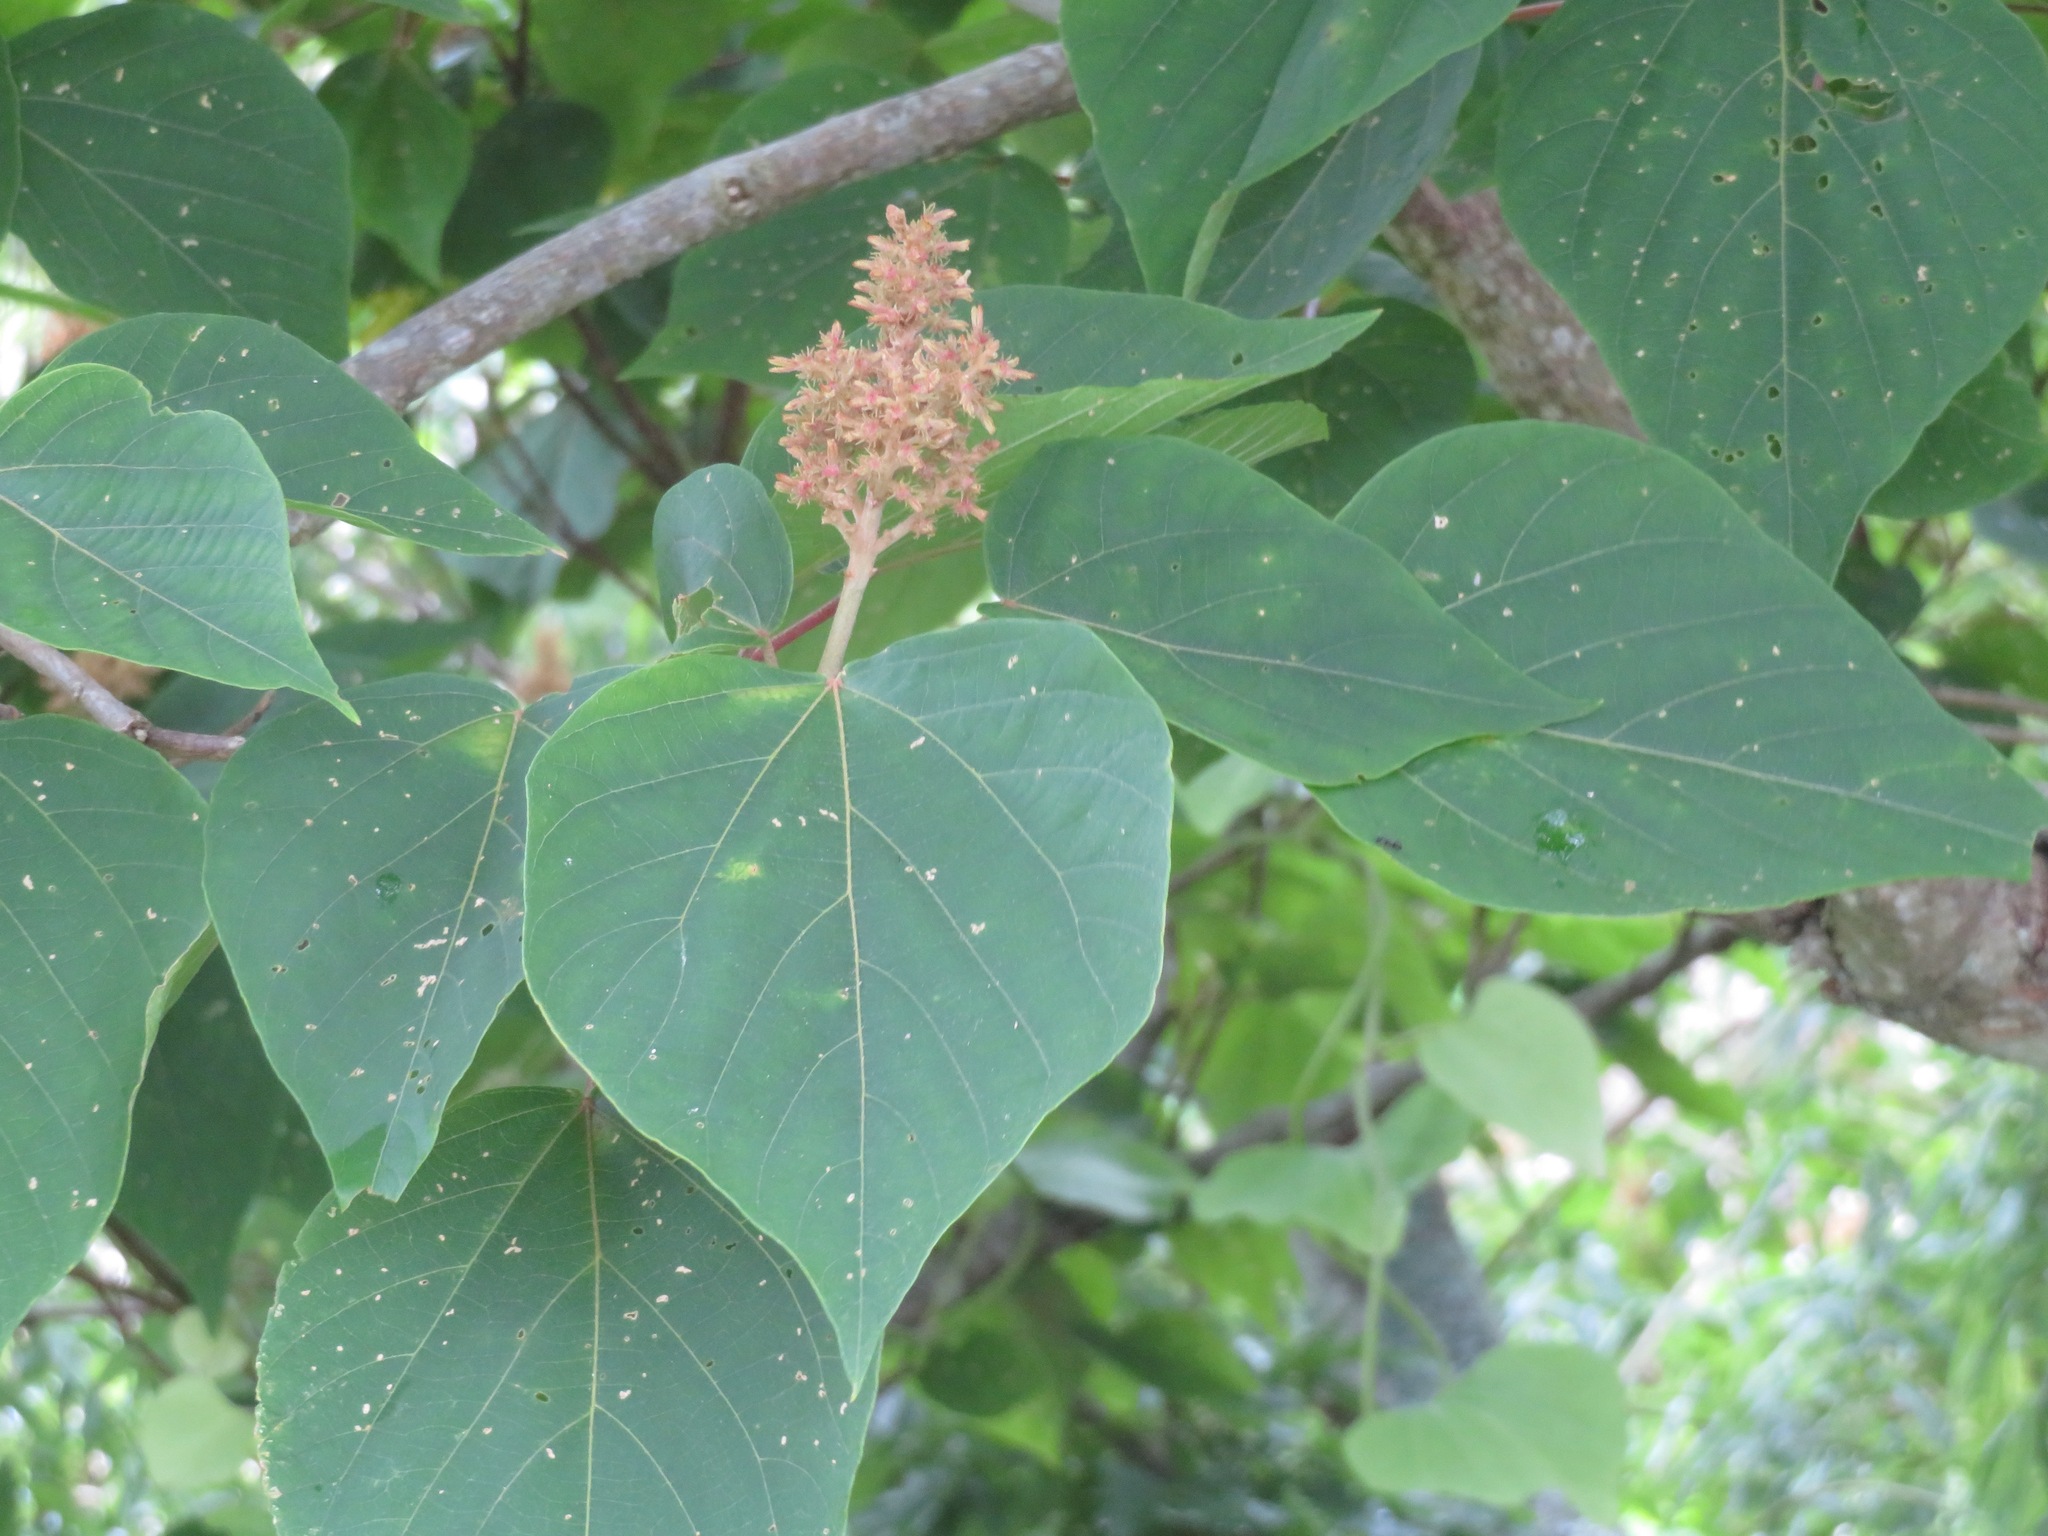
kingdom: Plantae
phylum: Tracheophyta
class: Magnoliopsida
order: Malpighiales
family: Euphorbiaceae
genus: Mallotus
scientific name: Mallotus japonicus
